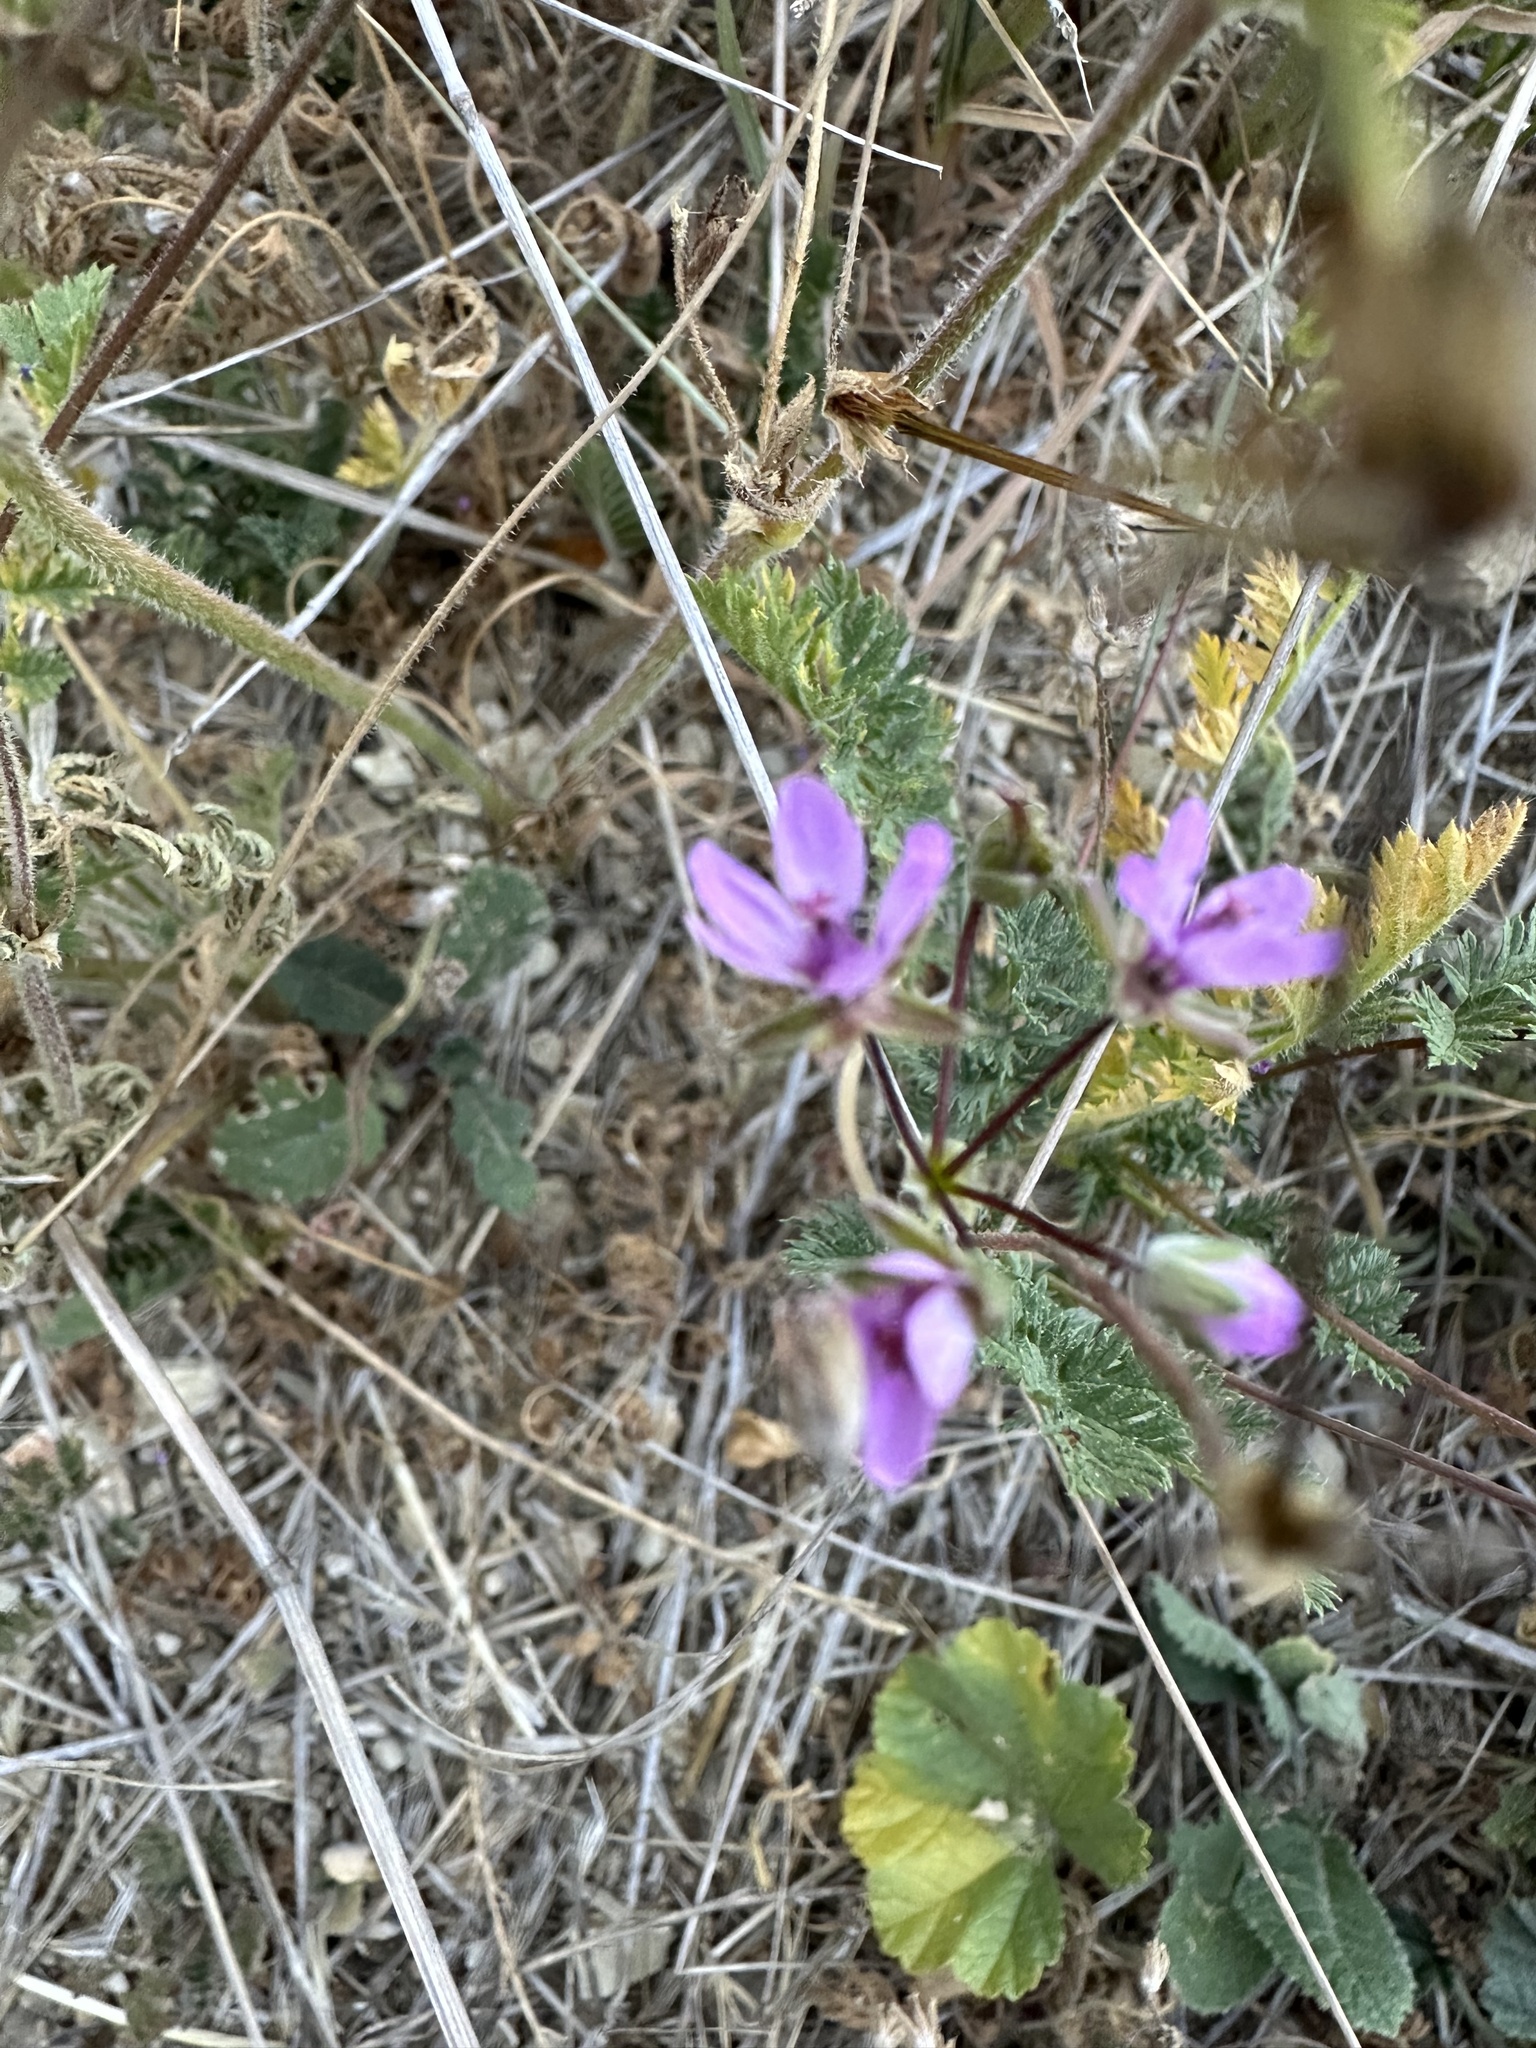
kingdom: Plantae
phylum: Tracheophyta
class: Magnoliopsida
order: Geraniales
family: Geraniaceae
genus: Erodium
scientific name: Erodium cicutarium
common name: Common stork's-bill
